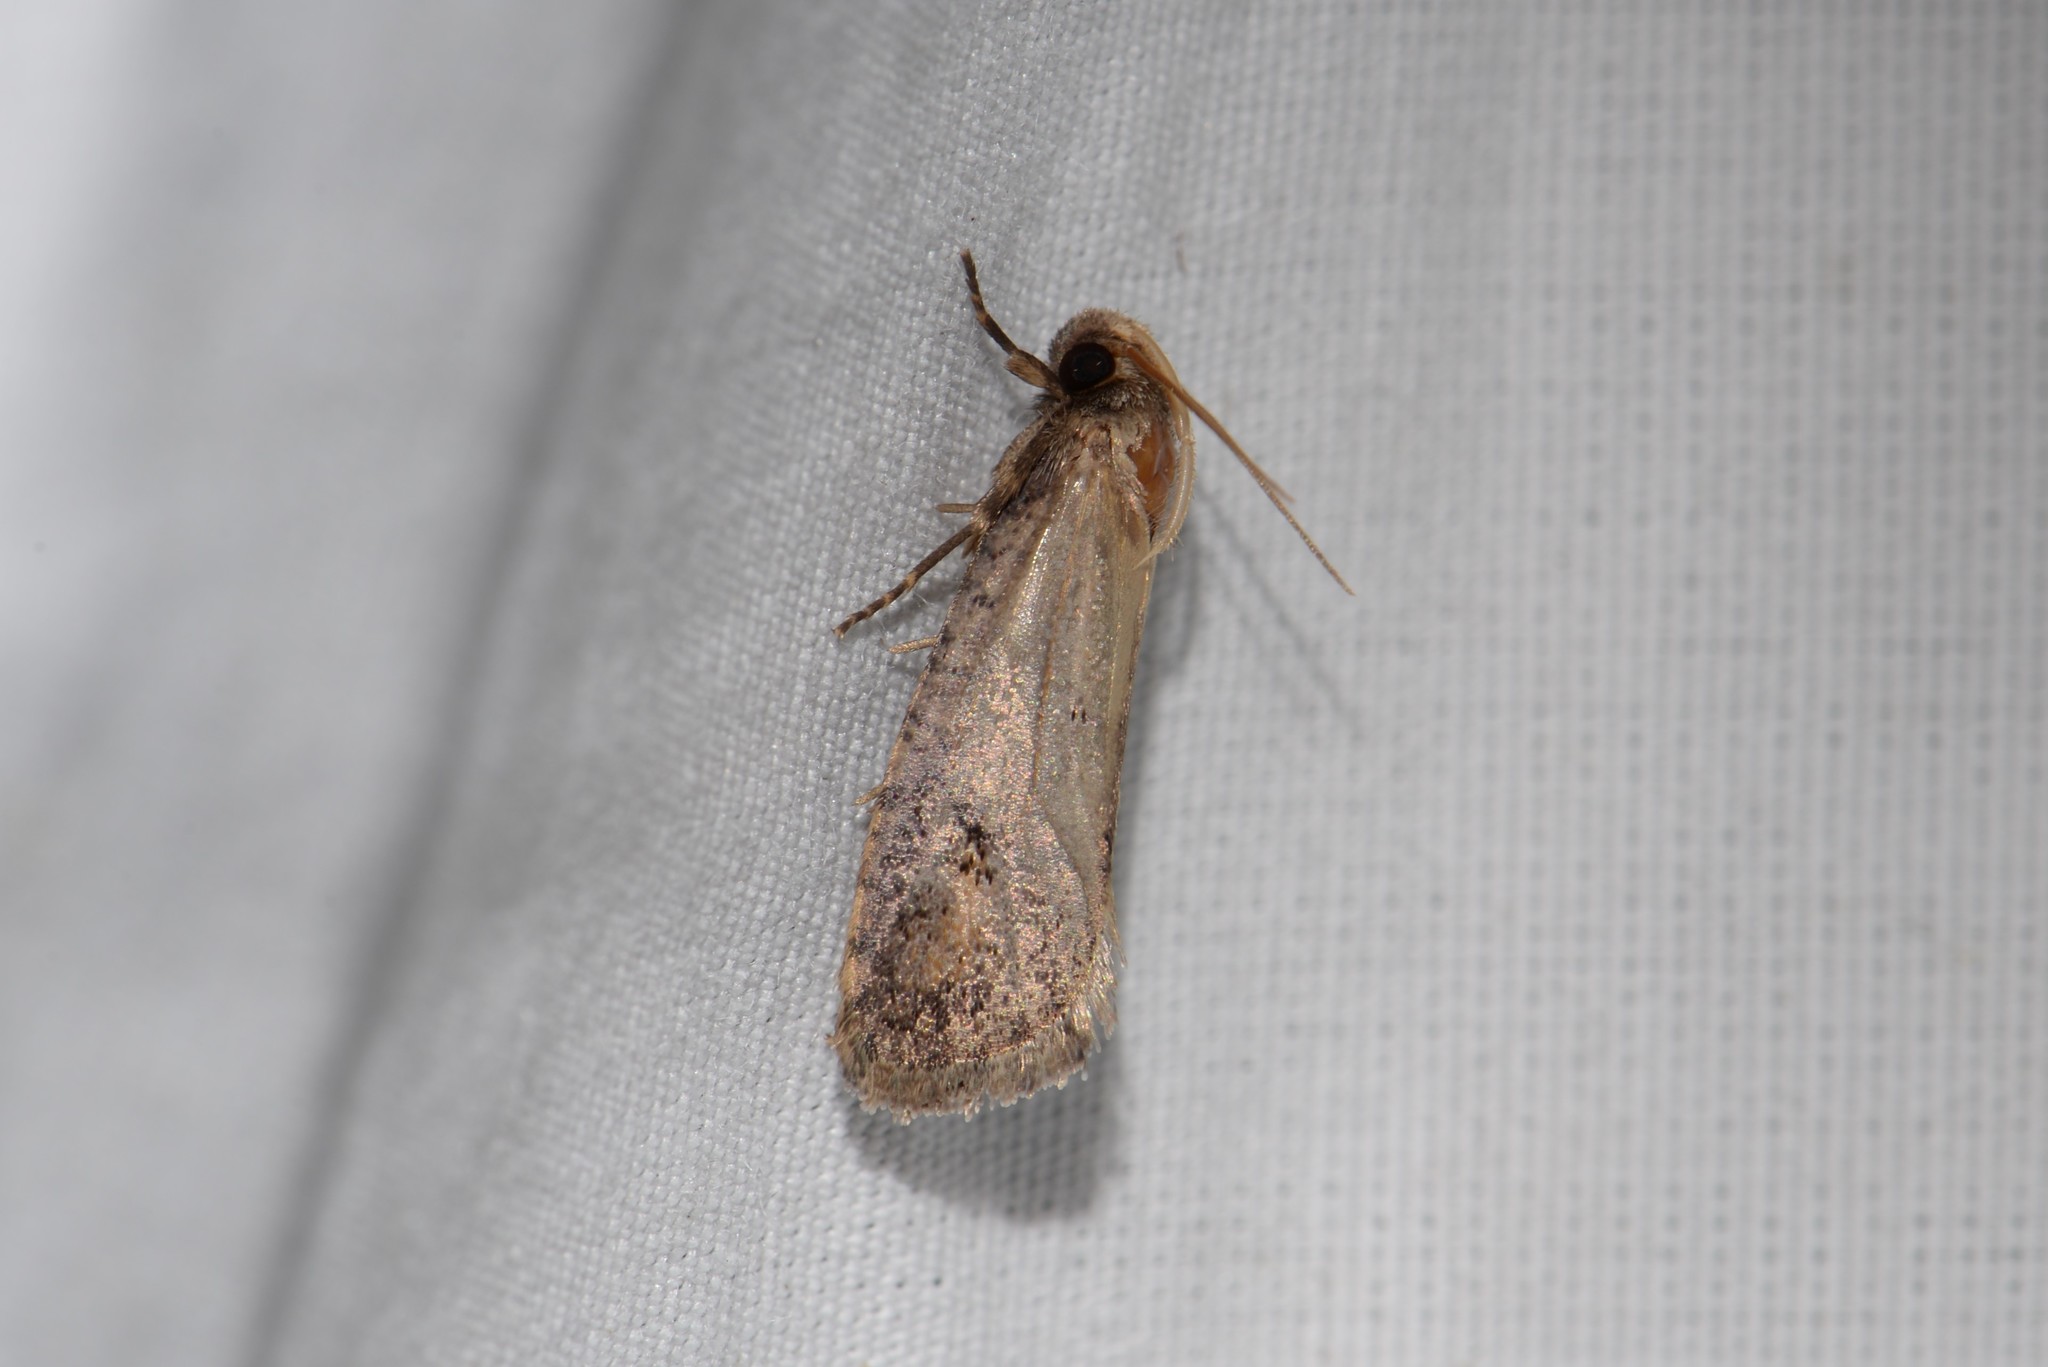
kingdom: Animalia
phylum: Arthropoda
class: Insecta
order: Lepidoptera
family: Tineidae
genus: Acrolophus
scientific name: Acrolophus popeanella
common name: Clemens' grass tubeworm moth
